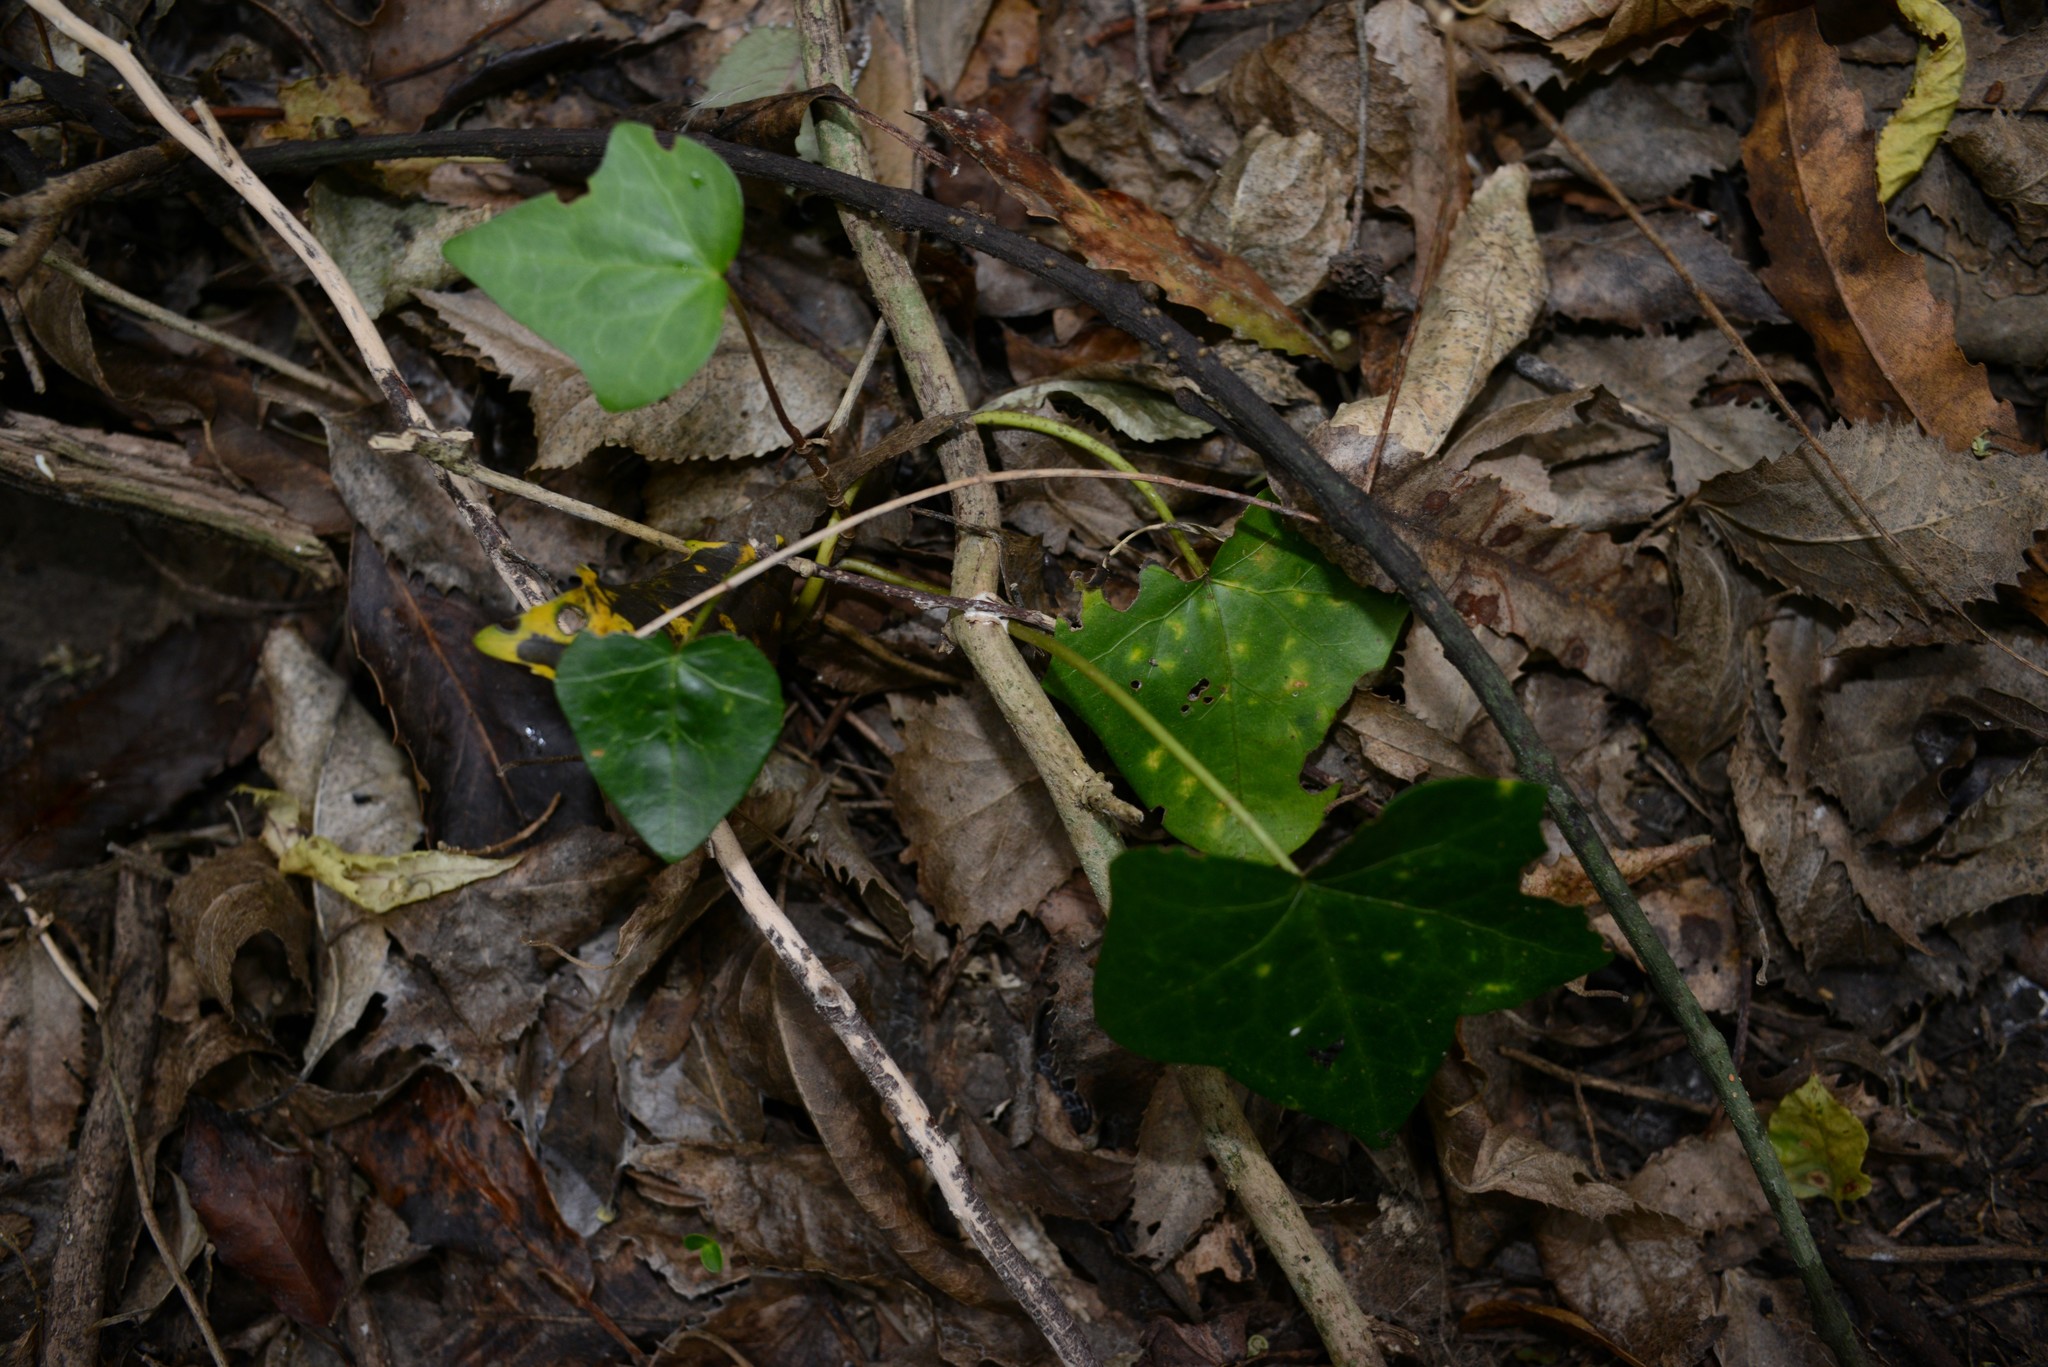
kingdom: Plantae
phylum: Tracheophyta
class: Magnoliopsida
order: Apiales
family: Araliaceae
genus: Hedera
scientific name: Hedera helix
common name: Ivy
